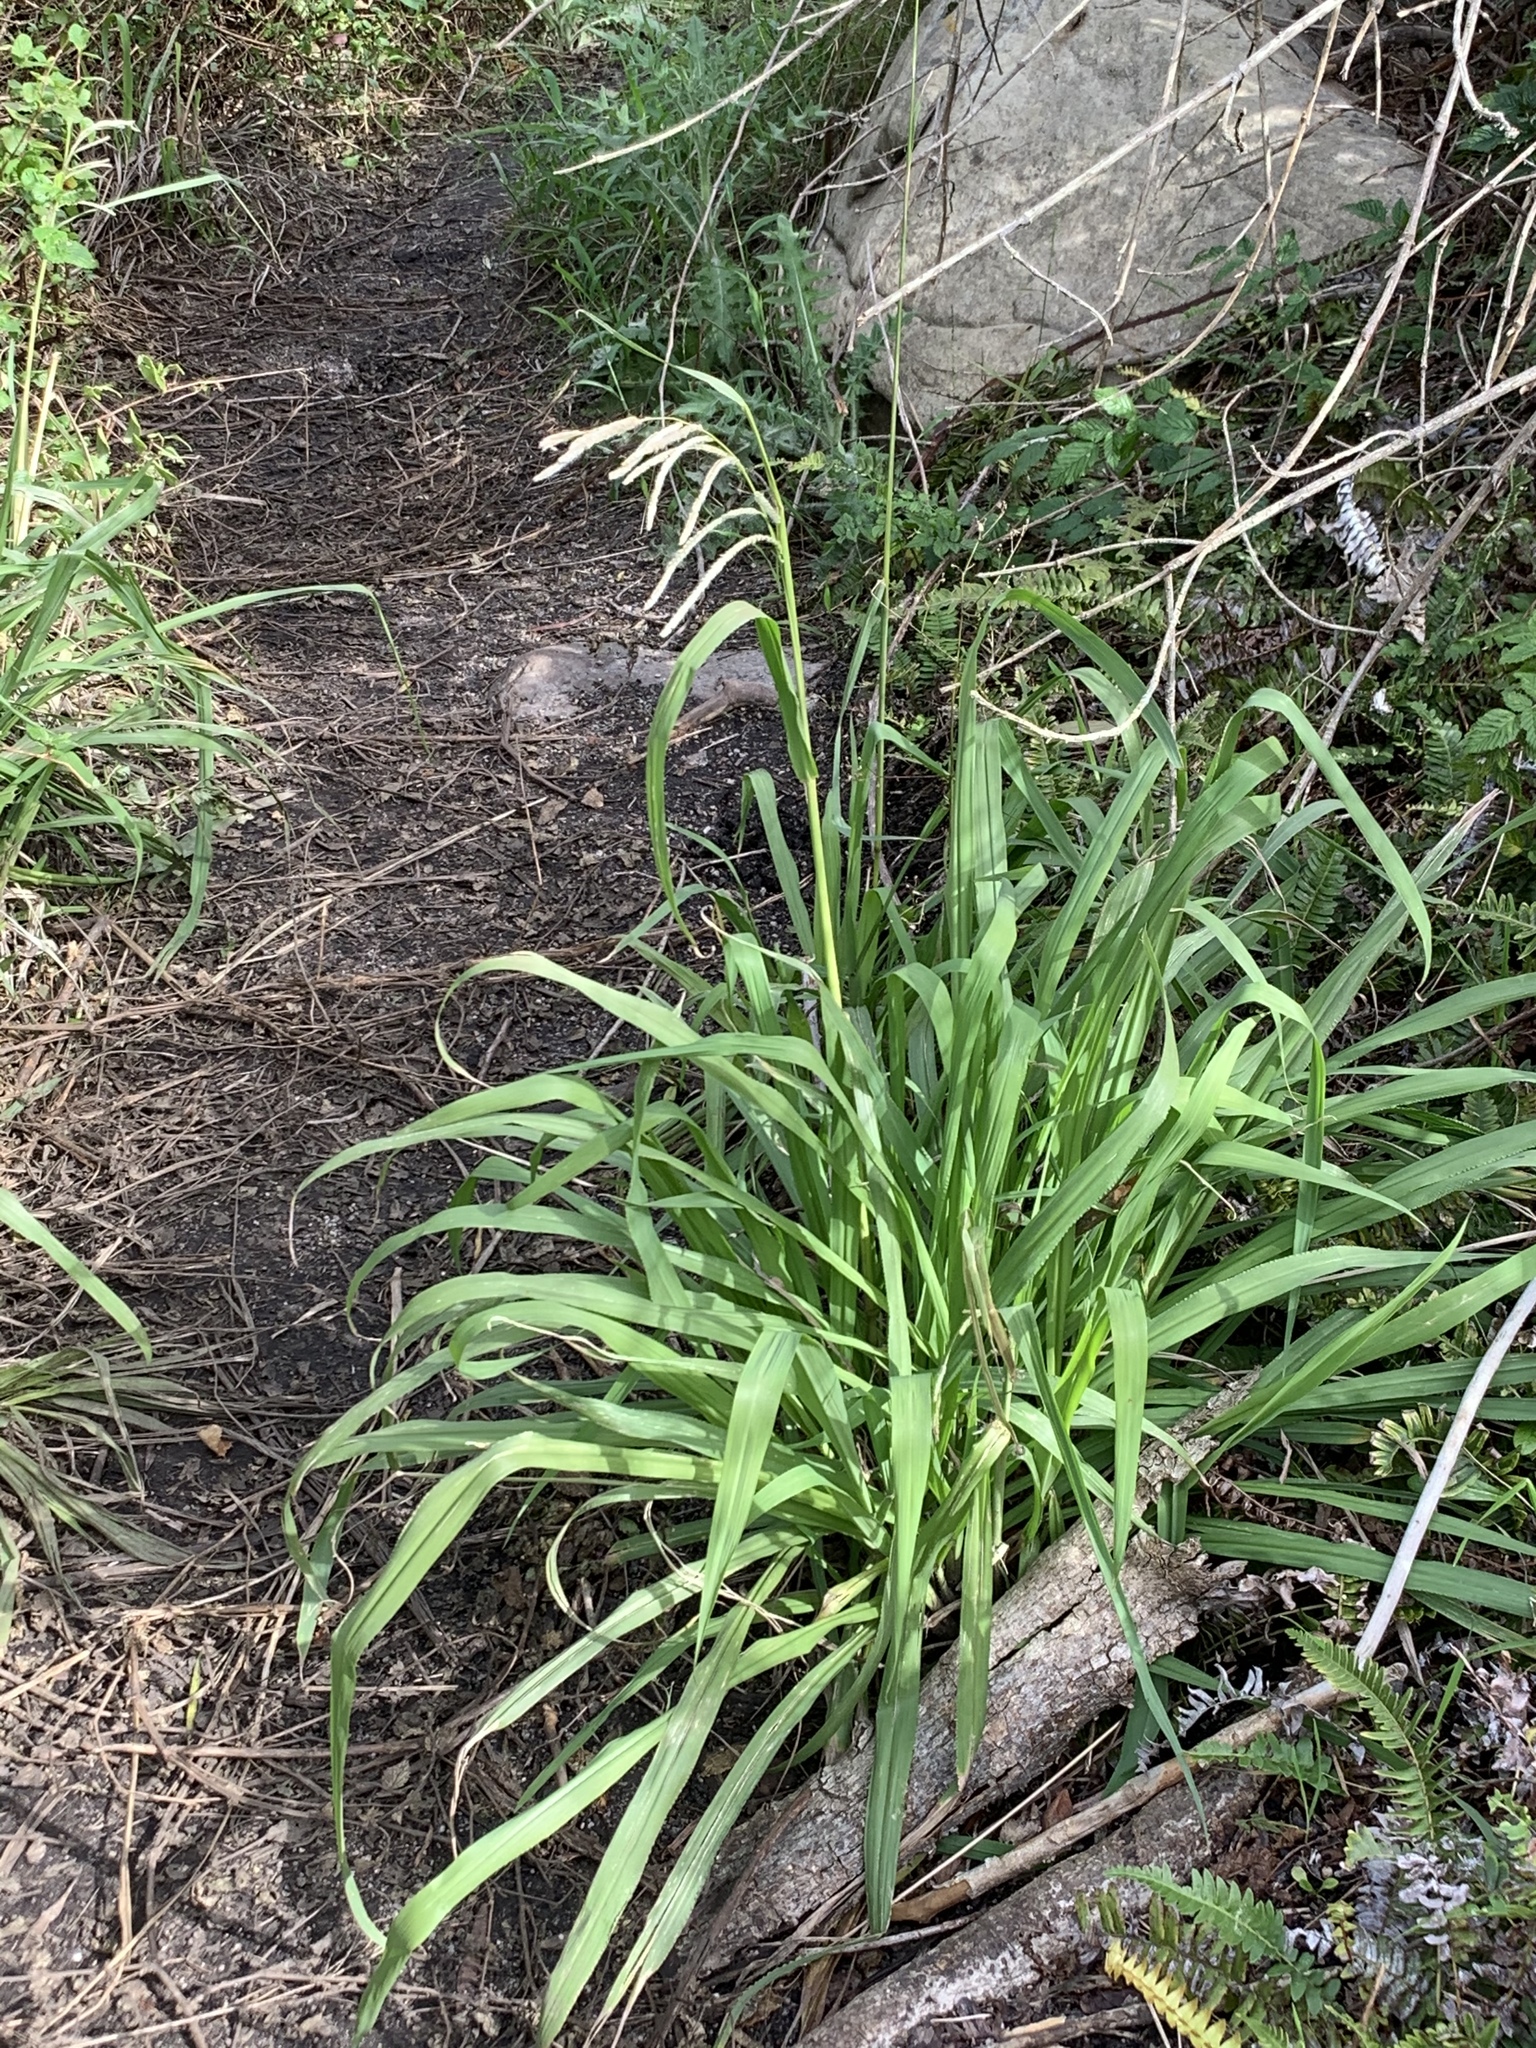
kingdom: Plantae
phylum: Tracheophyta
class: Liliopsida
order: Poales
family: Poaceae
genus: Paspalum
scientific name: Paspalum urvillei
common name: Vasey's grass
